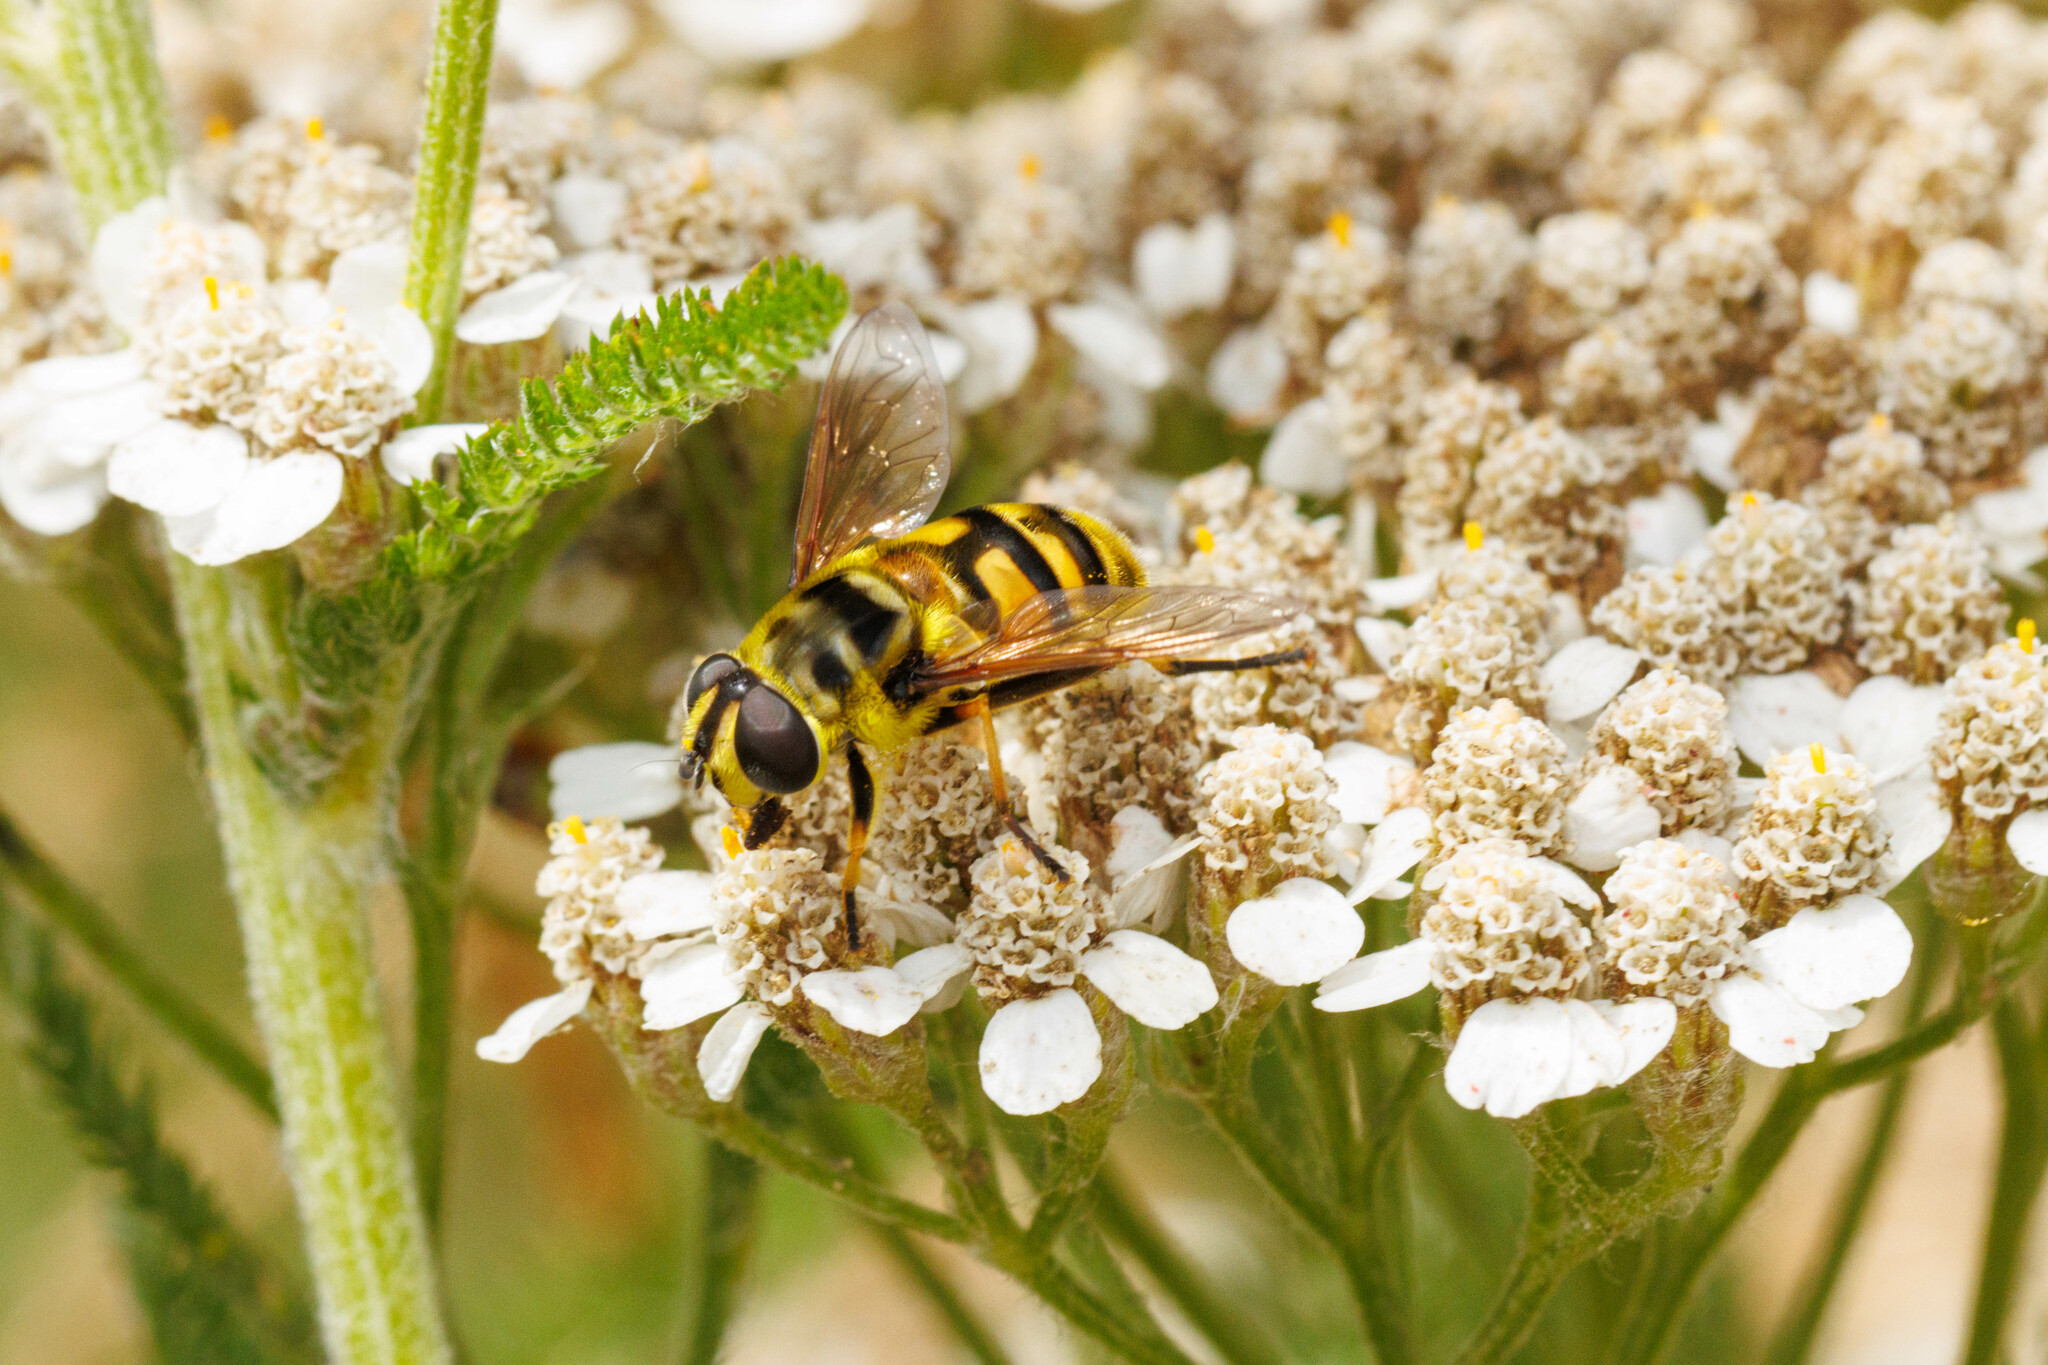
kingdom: Animalia
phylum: Arthropoda
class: Insecta
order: Diptera
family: Syrphidae
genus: Myathropa
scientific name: Myathropa florea
